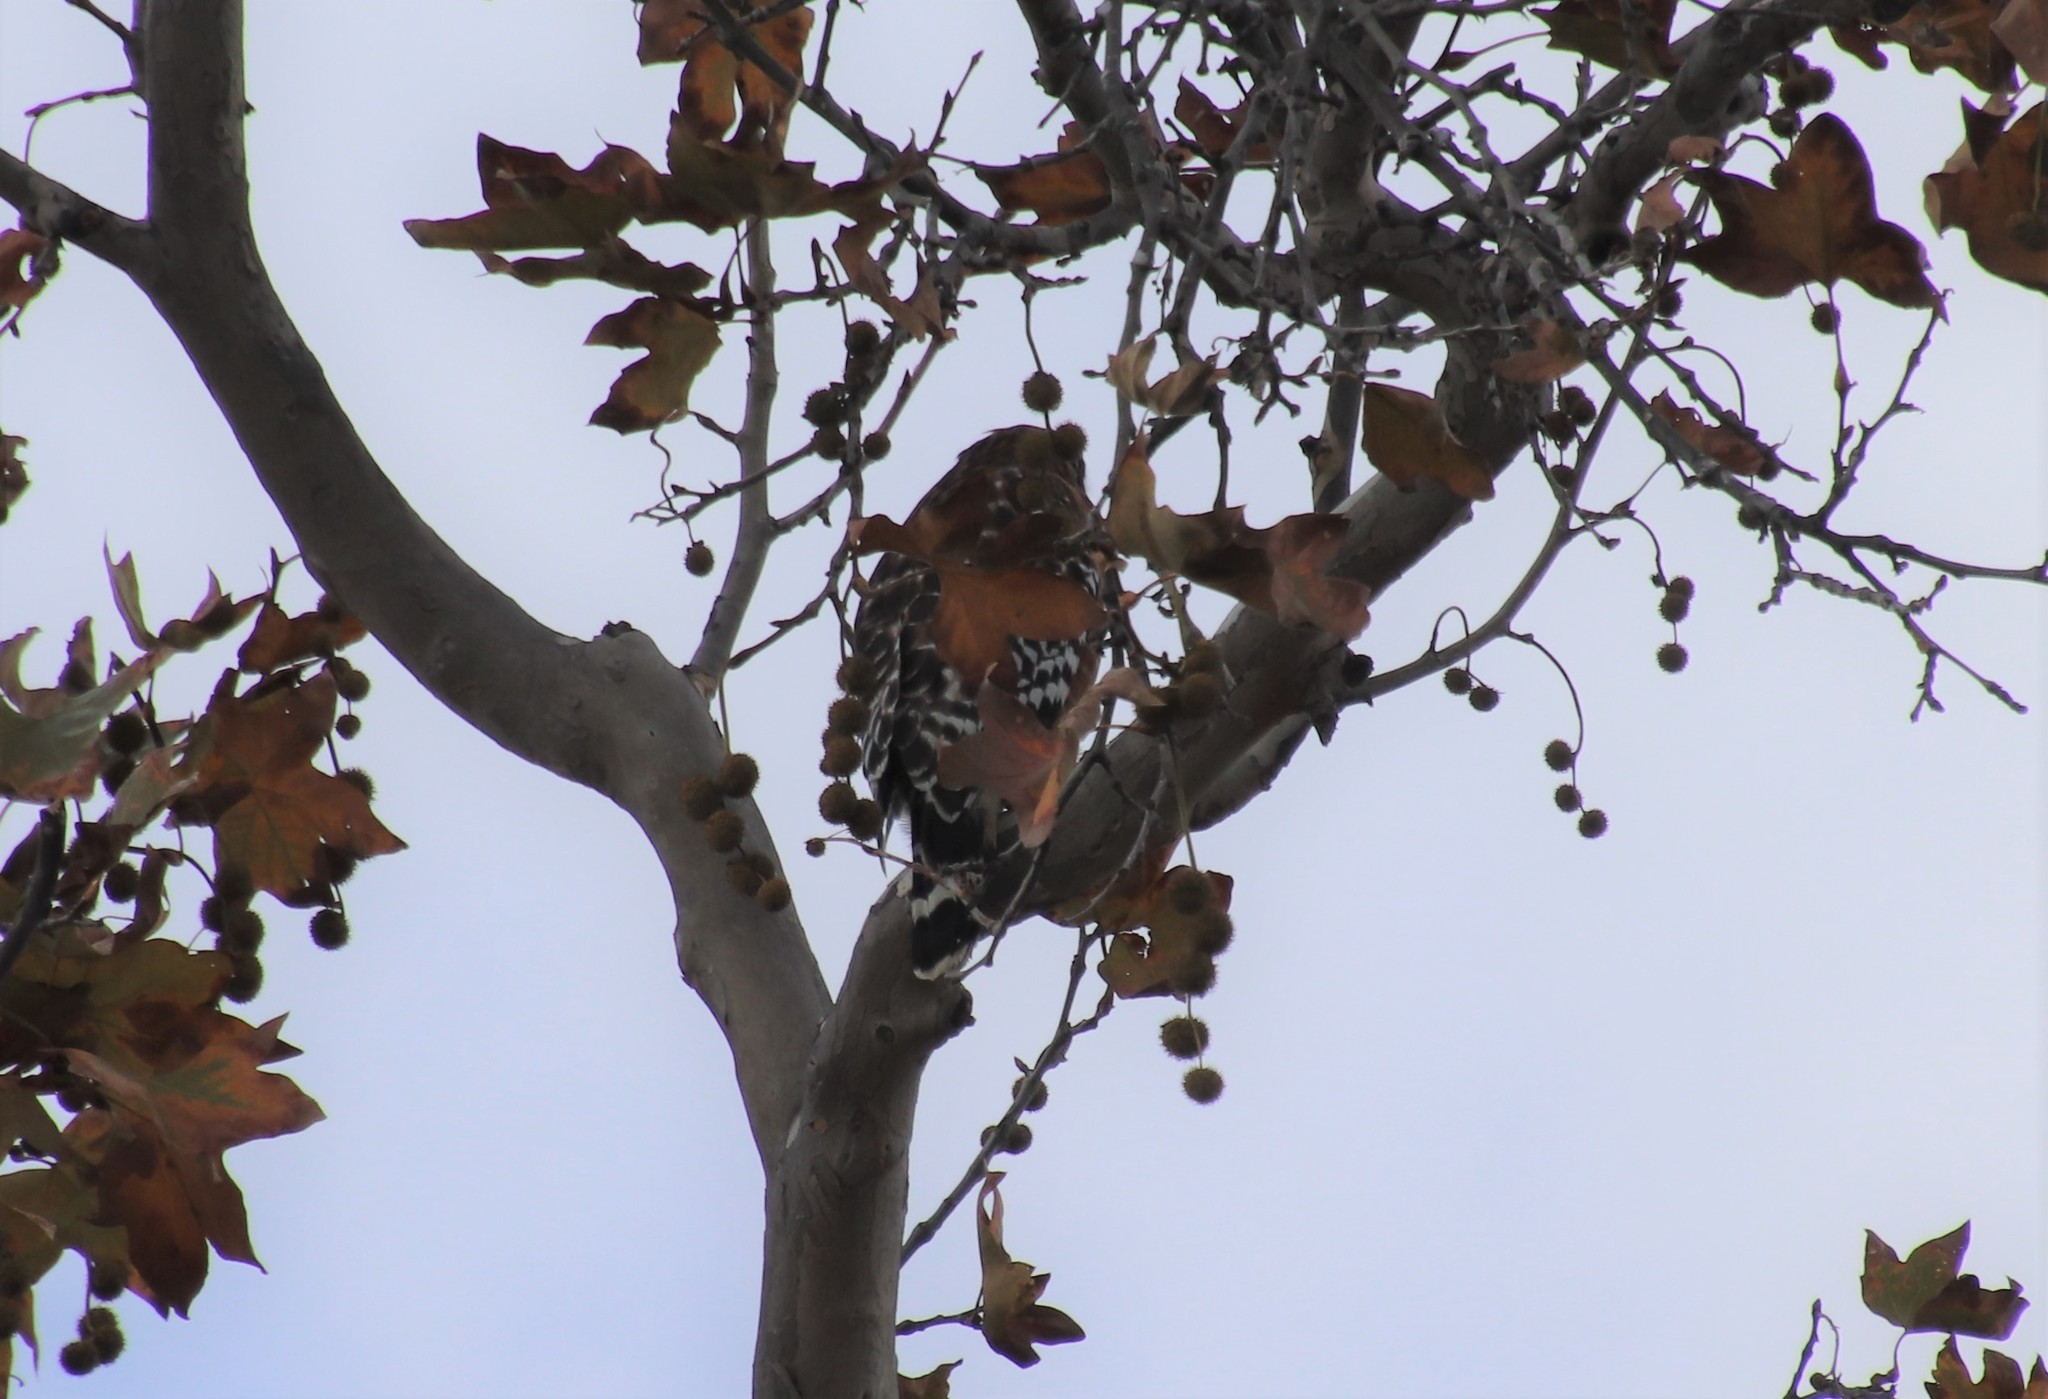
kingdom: Animalia
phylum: Chordata
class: Aves
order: Accipitriformes
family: Accipitridae
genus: Buteo
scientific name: Buteo lineatus
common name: Red-shouldered hawk
